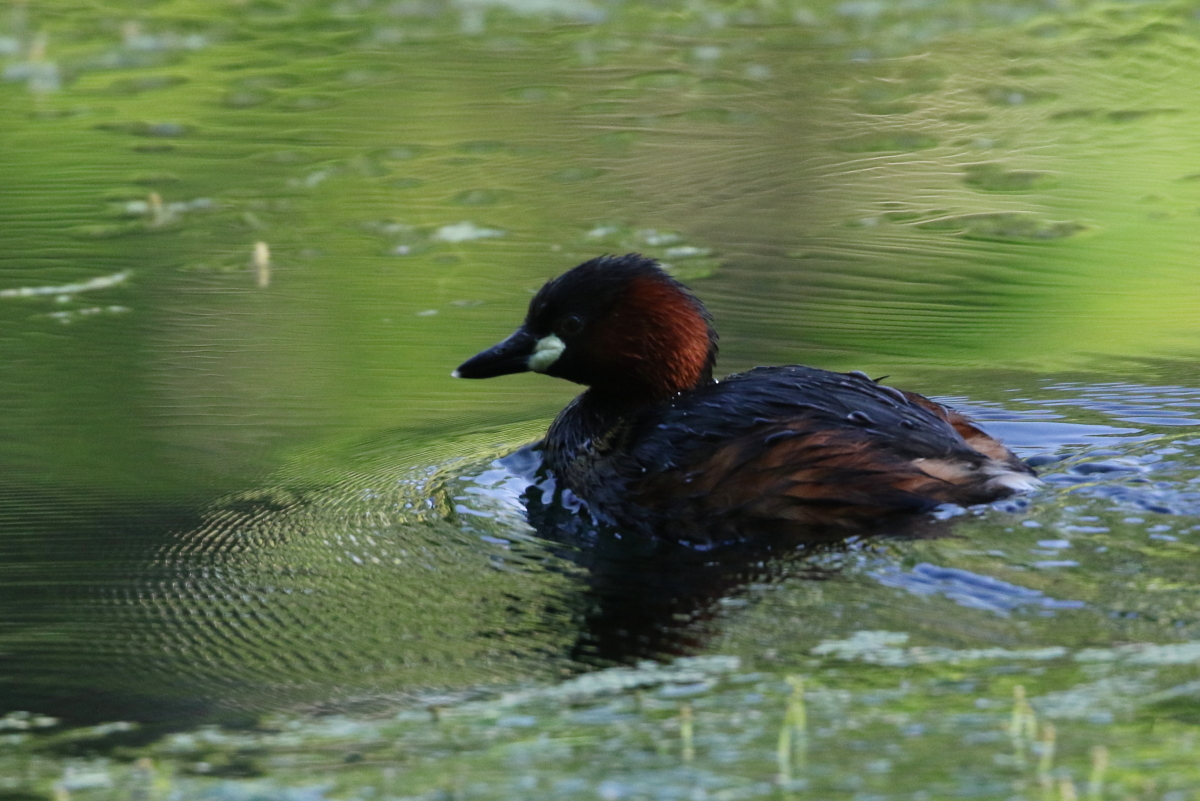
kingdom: Animalia
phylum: Chordata
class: Aves
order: Podicipediformes
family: Podicipedidae
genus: Tachybaptus
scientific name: Tachybaptus ruficollis
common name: Little grebe
